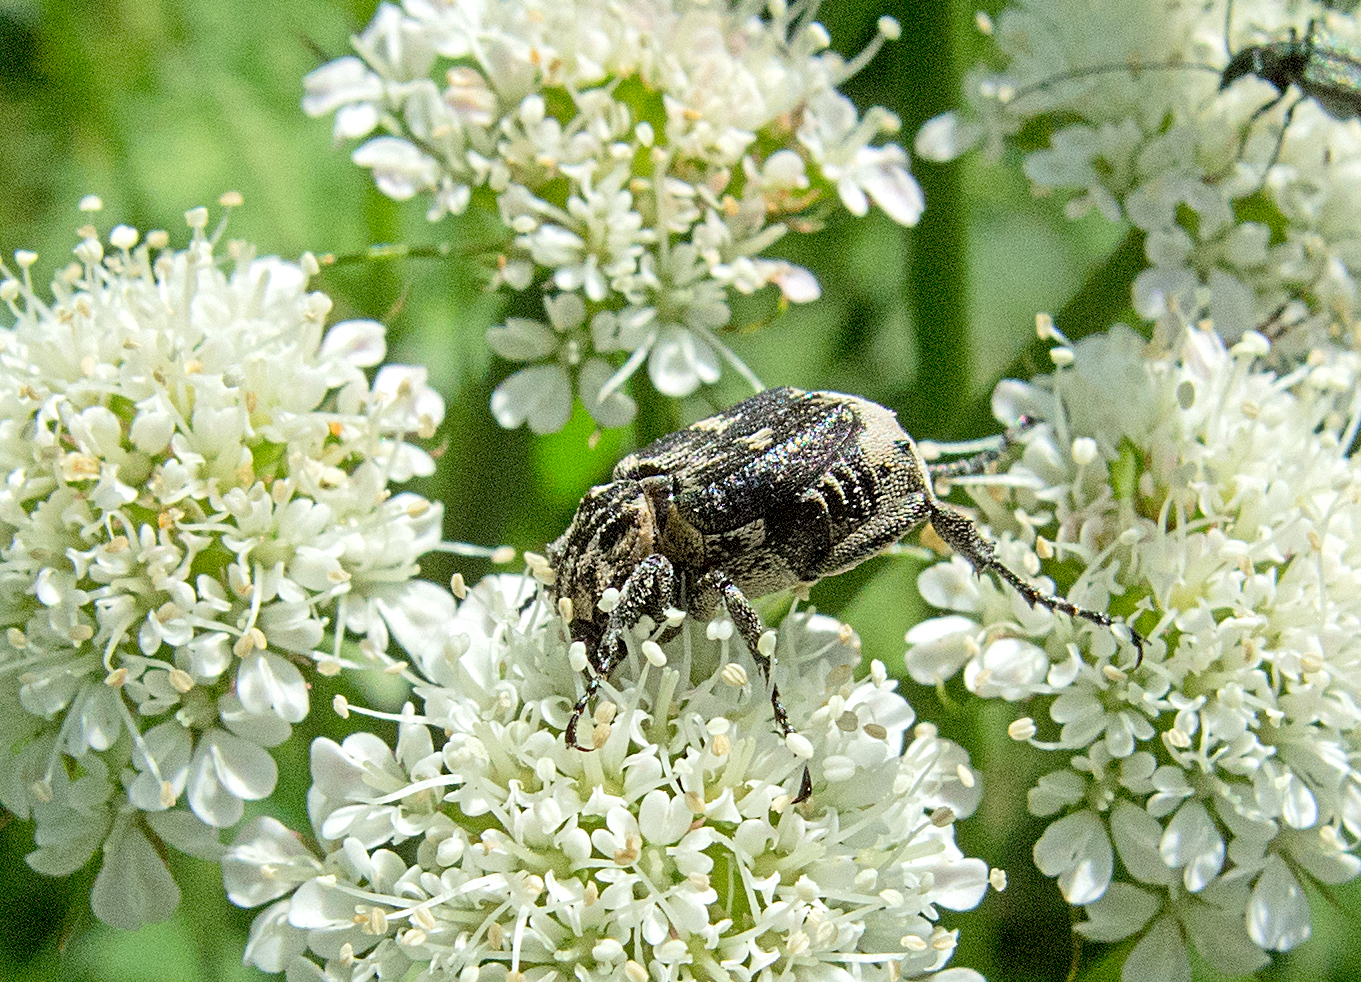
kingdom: Animalia
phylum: Arthropoda
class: Insecta
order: Coleoptera
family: Scarabaeidae
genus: Valgus
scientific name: Valgus hemipterus
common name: Bug flower chafer
